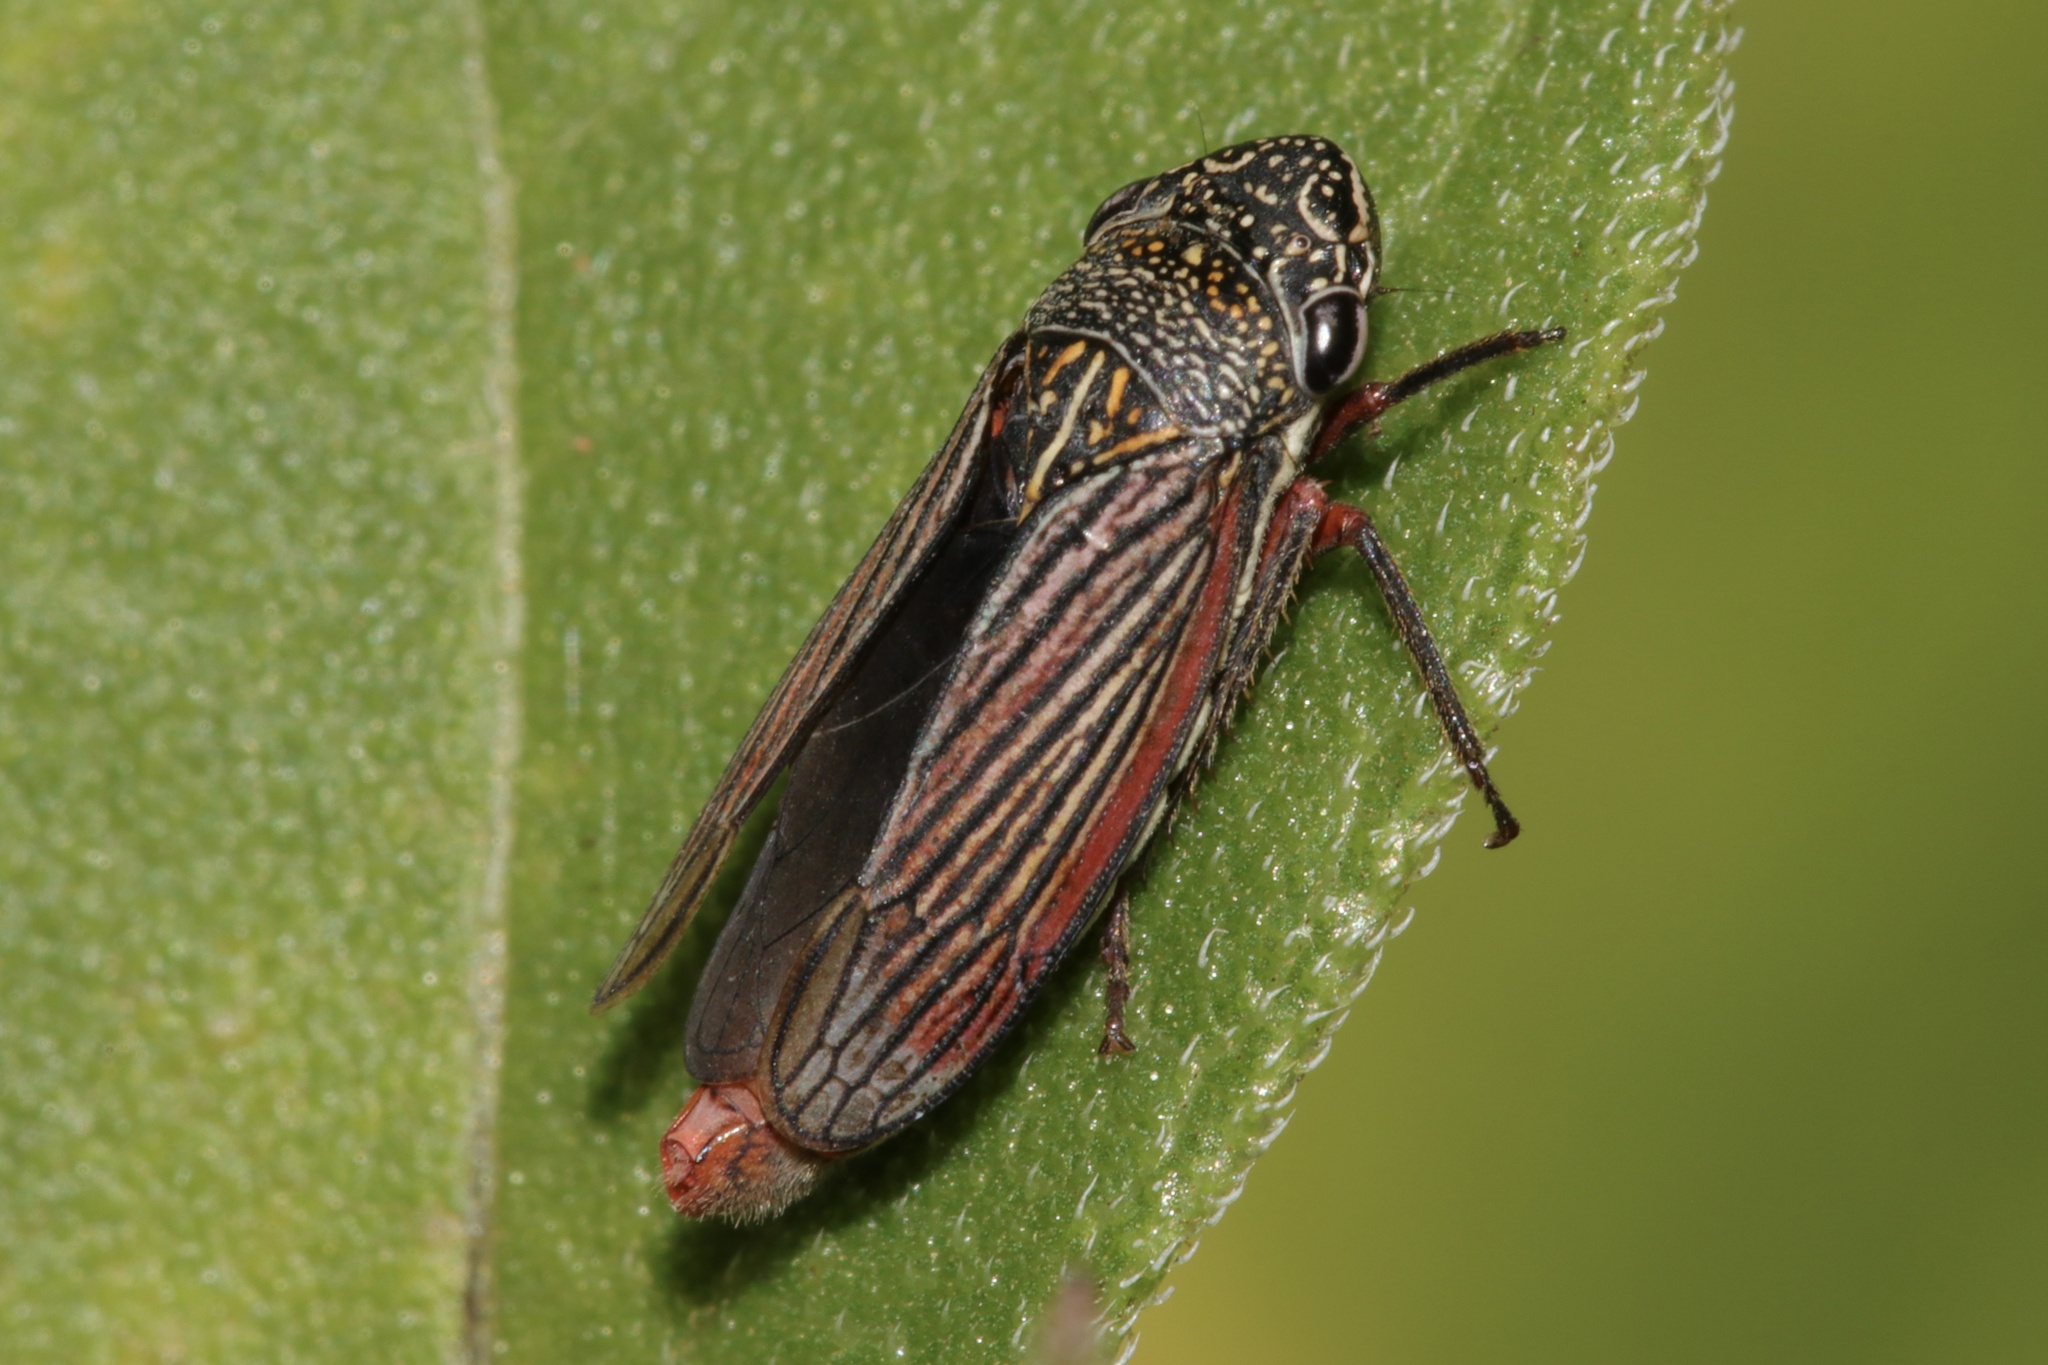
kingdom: Animalia
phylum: Arthropoda
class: Insecta
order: Hemiptera
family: Cicadellidae
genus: Cuerna
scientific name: Cuerna costalis
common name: Lateral-lined sharpshooter
